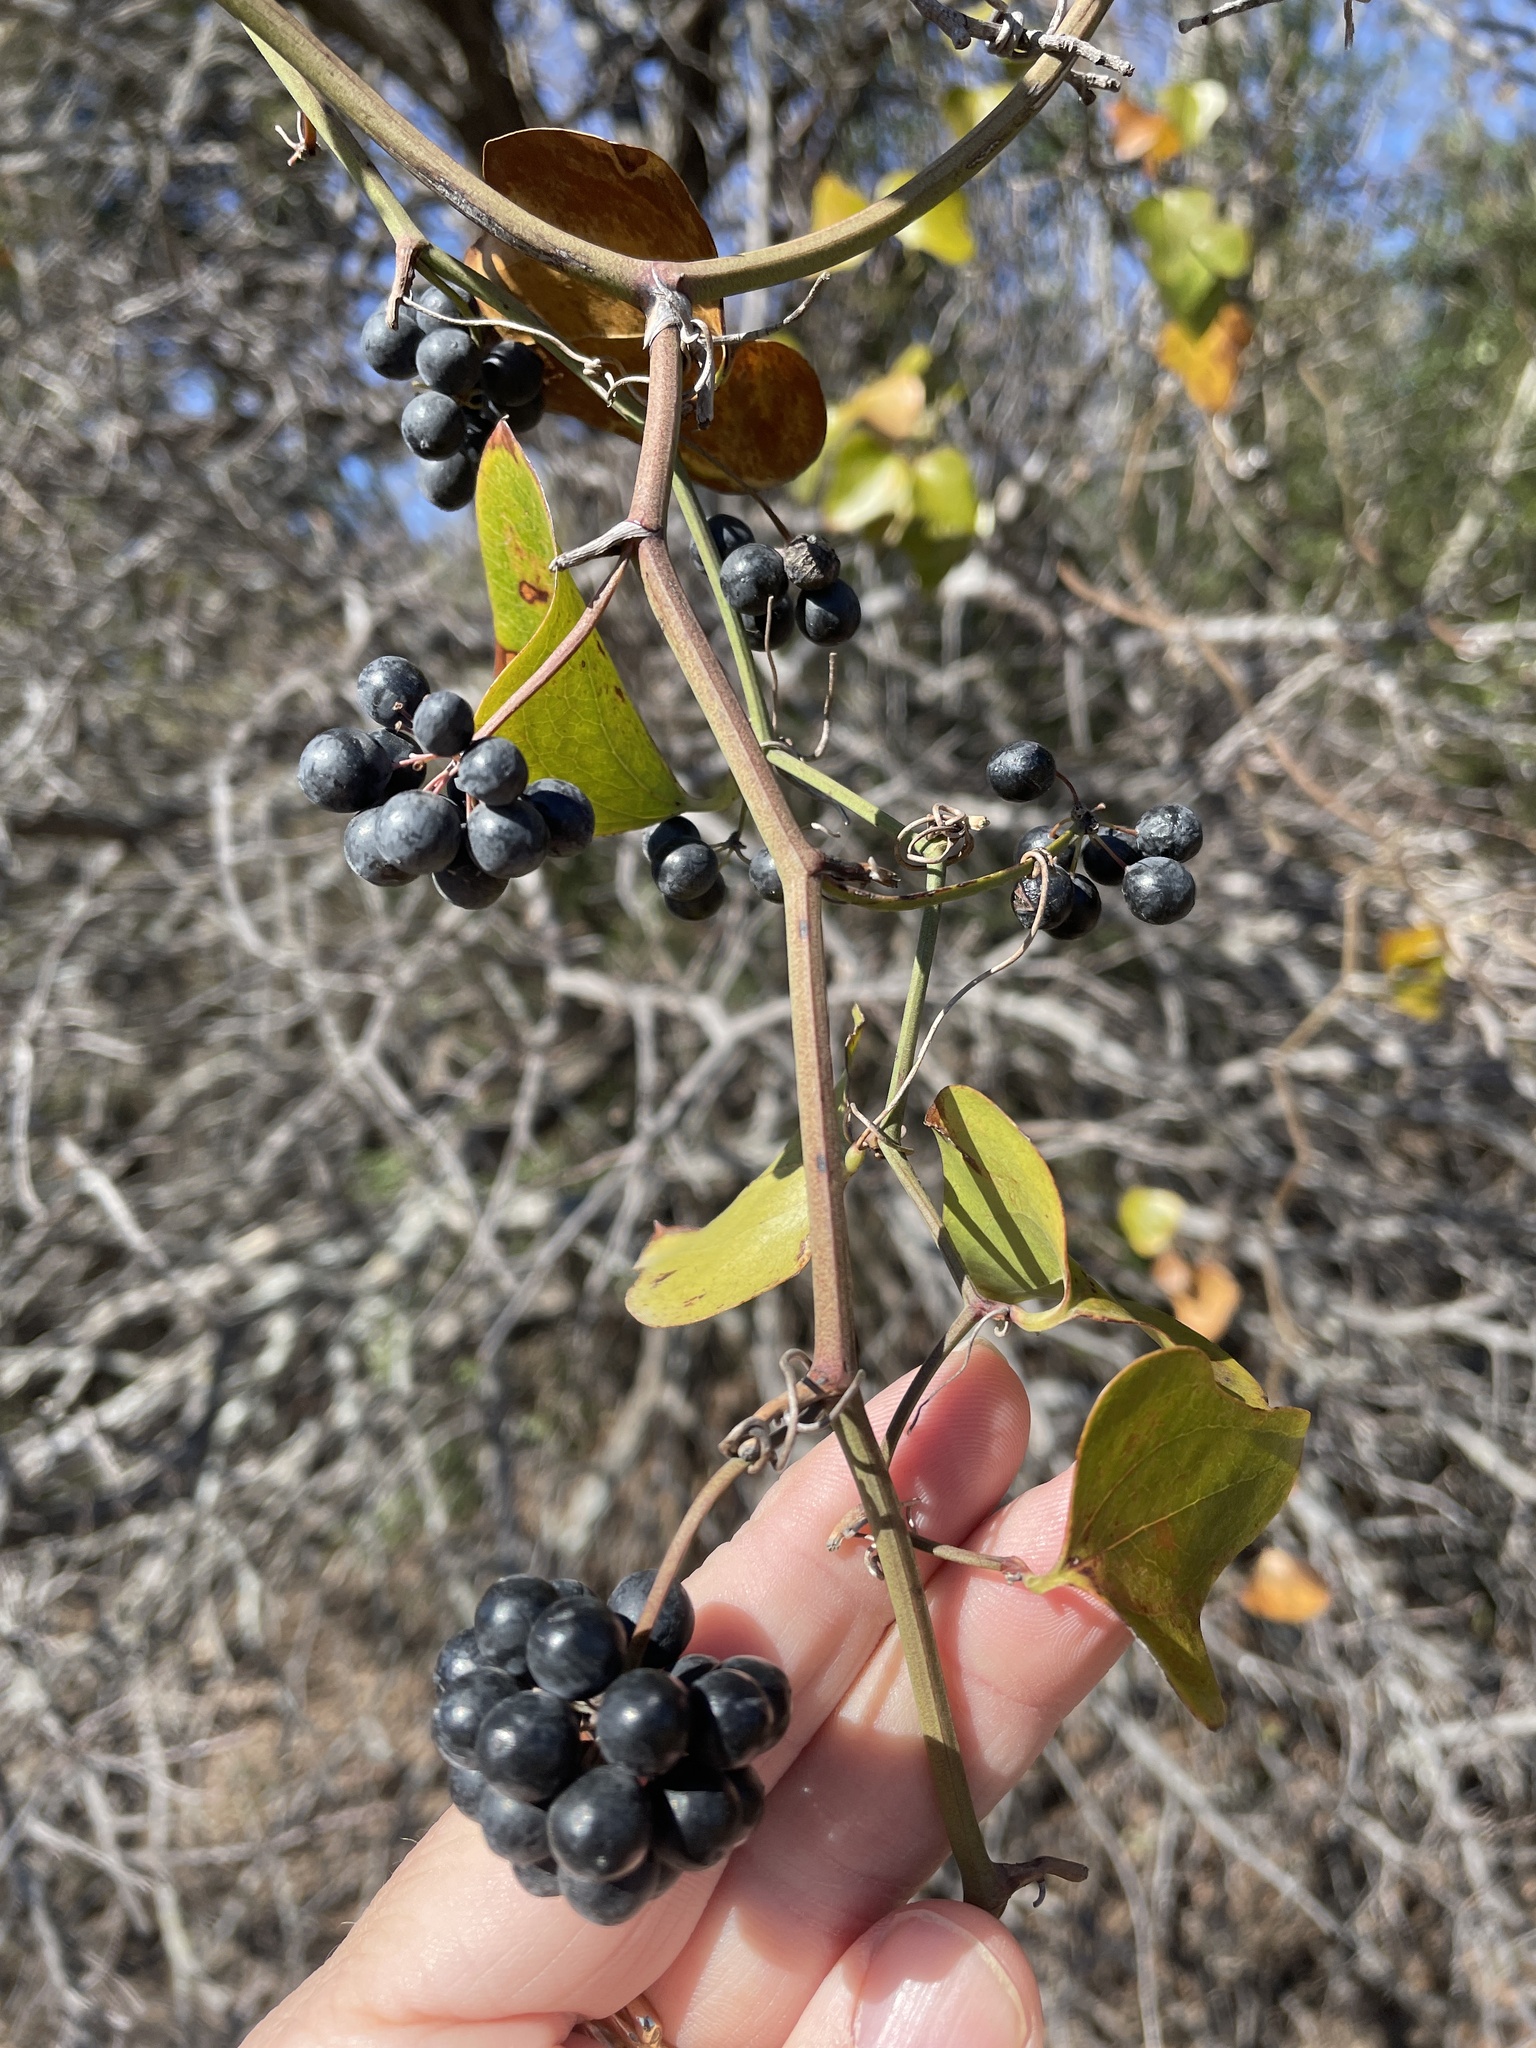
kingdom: Plantae
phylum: Tracheophyta
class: Liliopsida
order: Liliales
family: Smilacaceae
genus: Smilax
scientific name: Smilax bona-nox
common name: Catbrier
